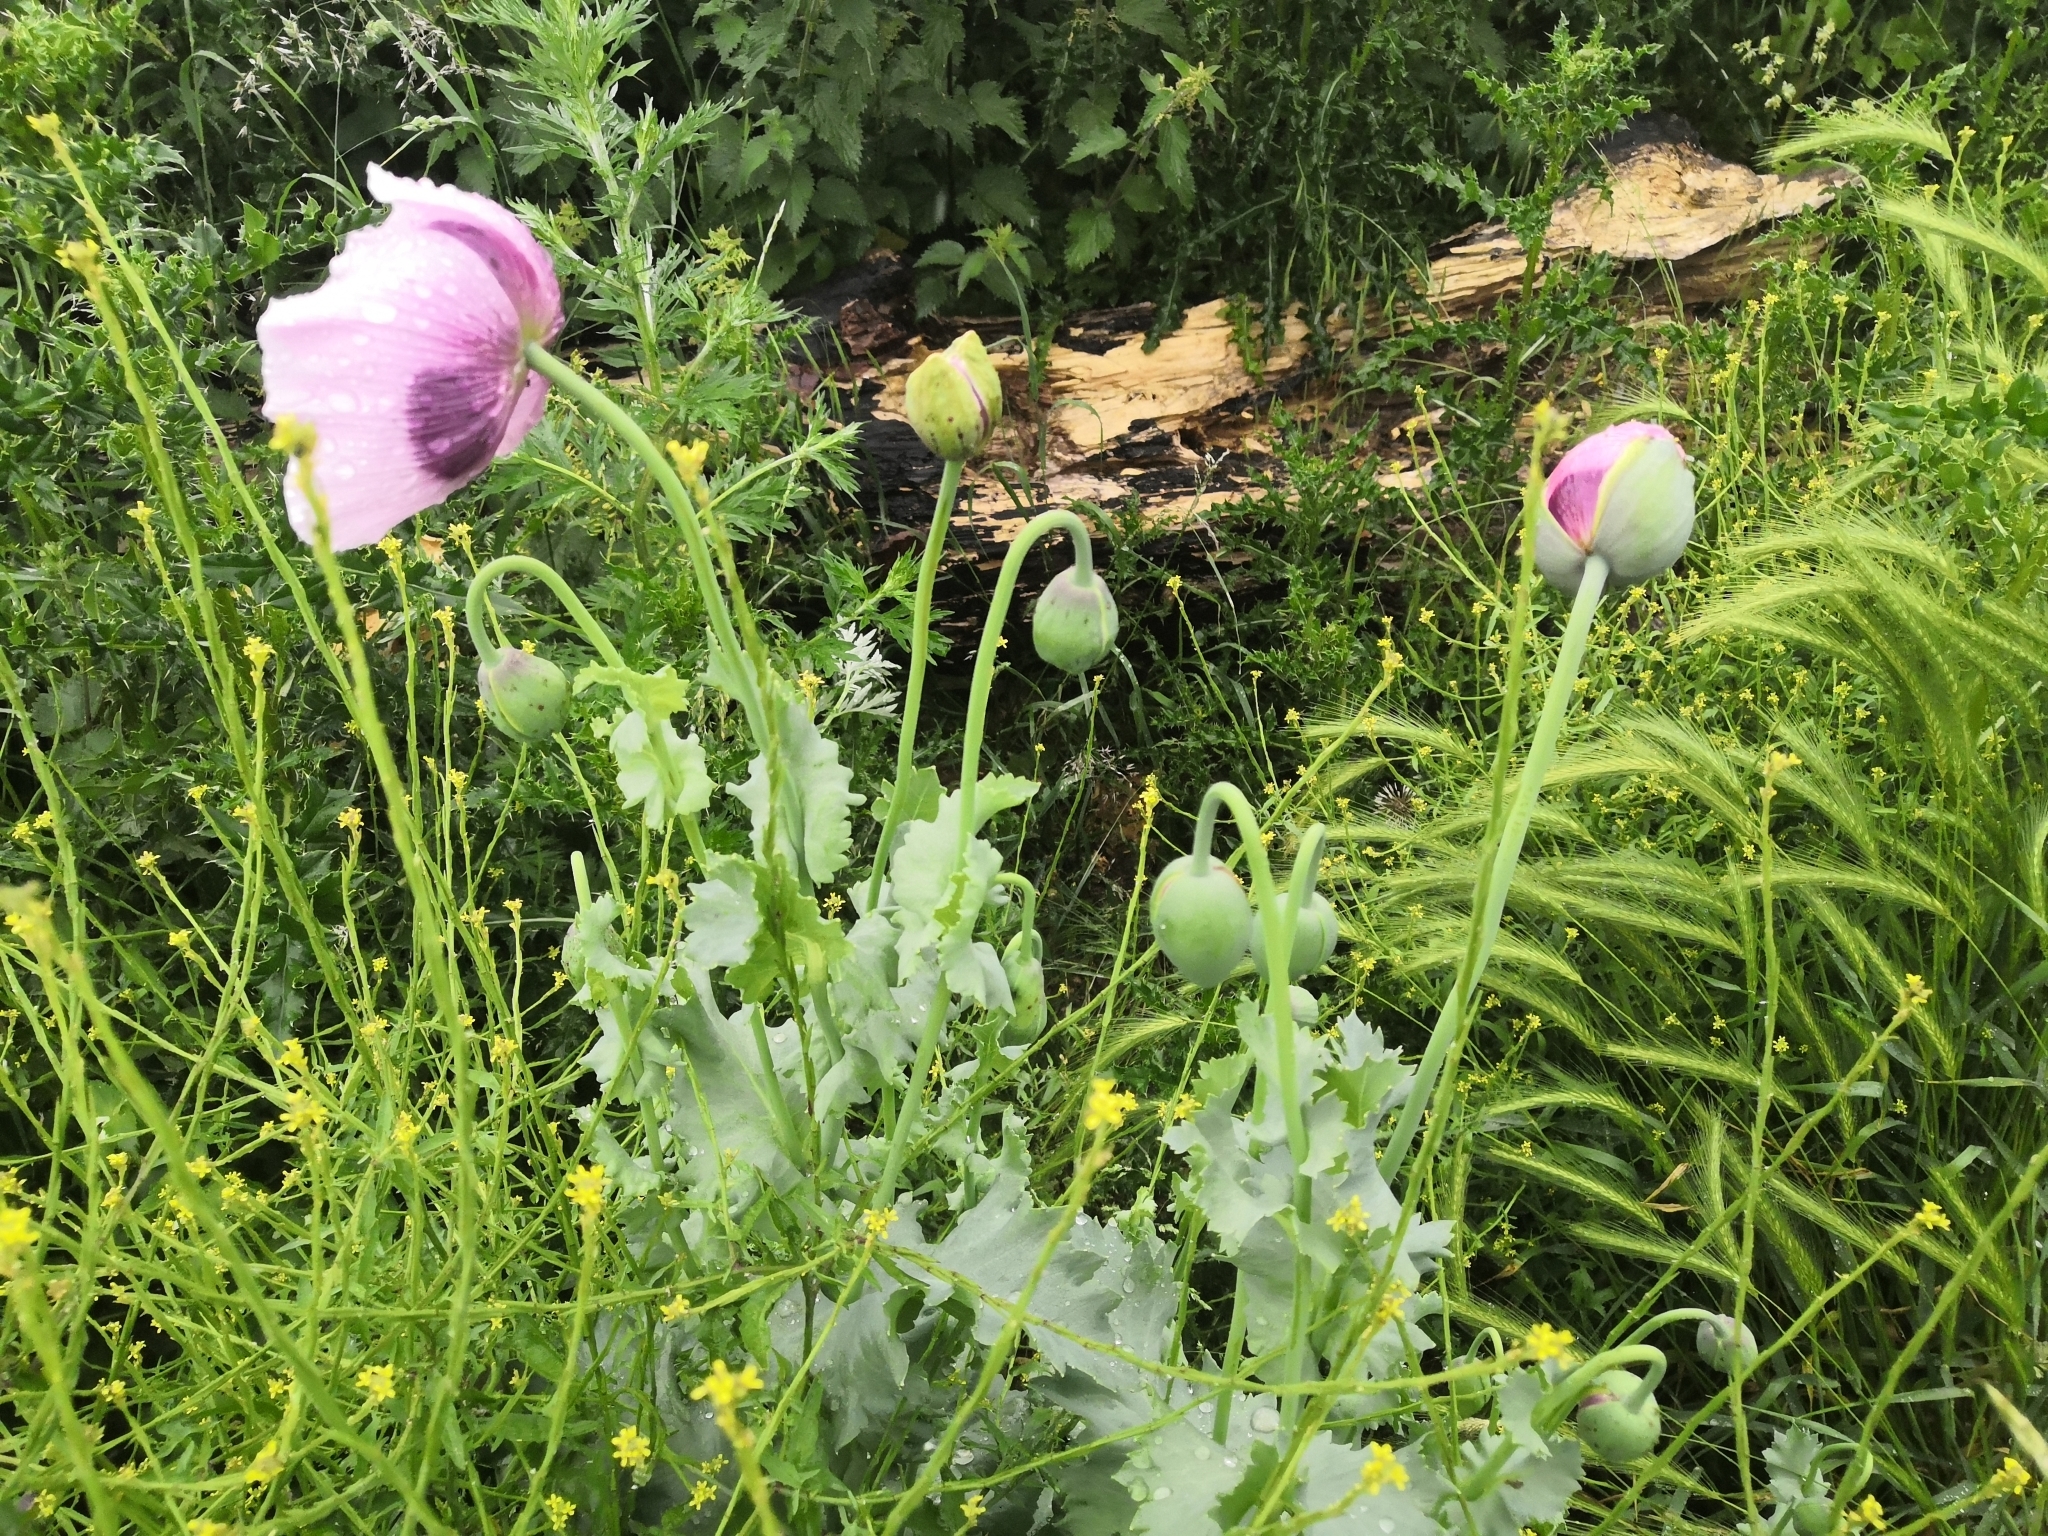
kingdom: Plantae
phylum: Tracheophyta
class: Magnoliopsida
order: Ranunculales
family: Papaveraceae
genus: Papaver
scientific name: Papaver somniferum
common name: Opium poppy
